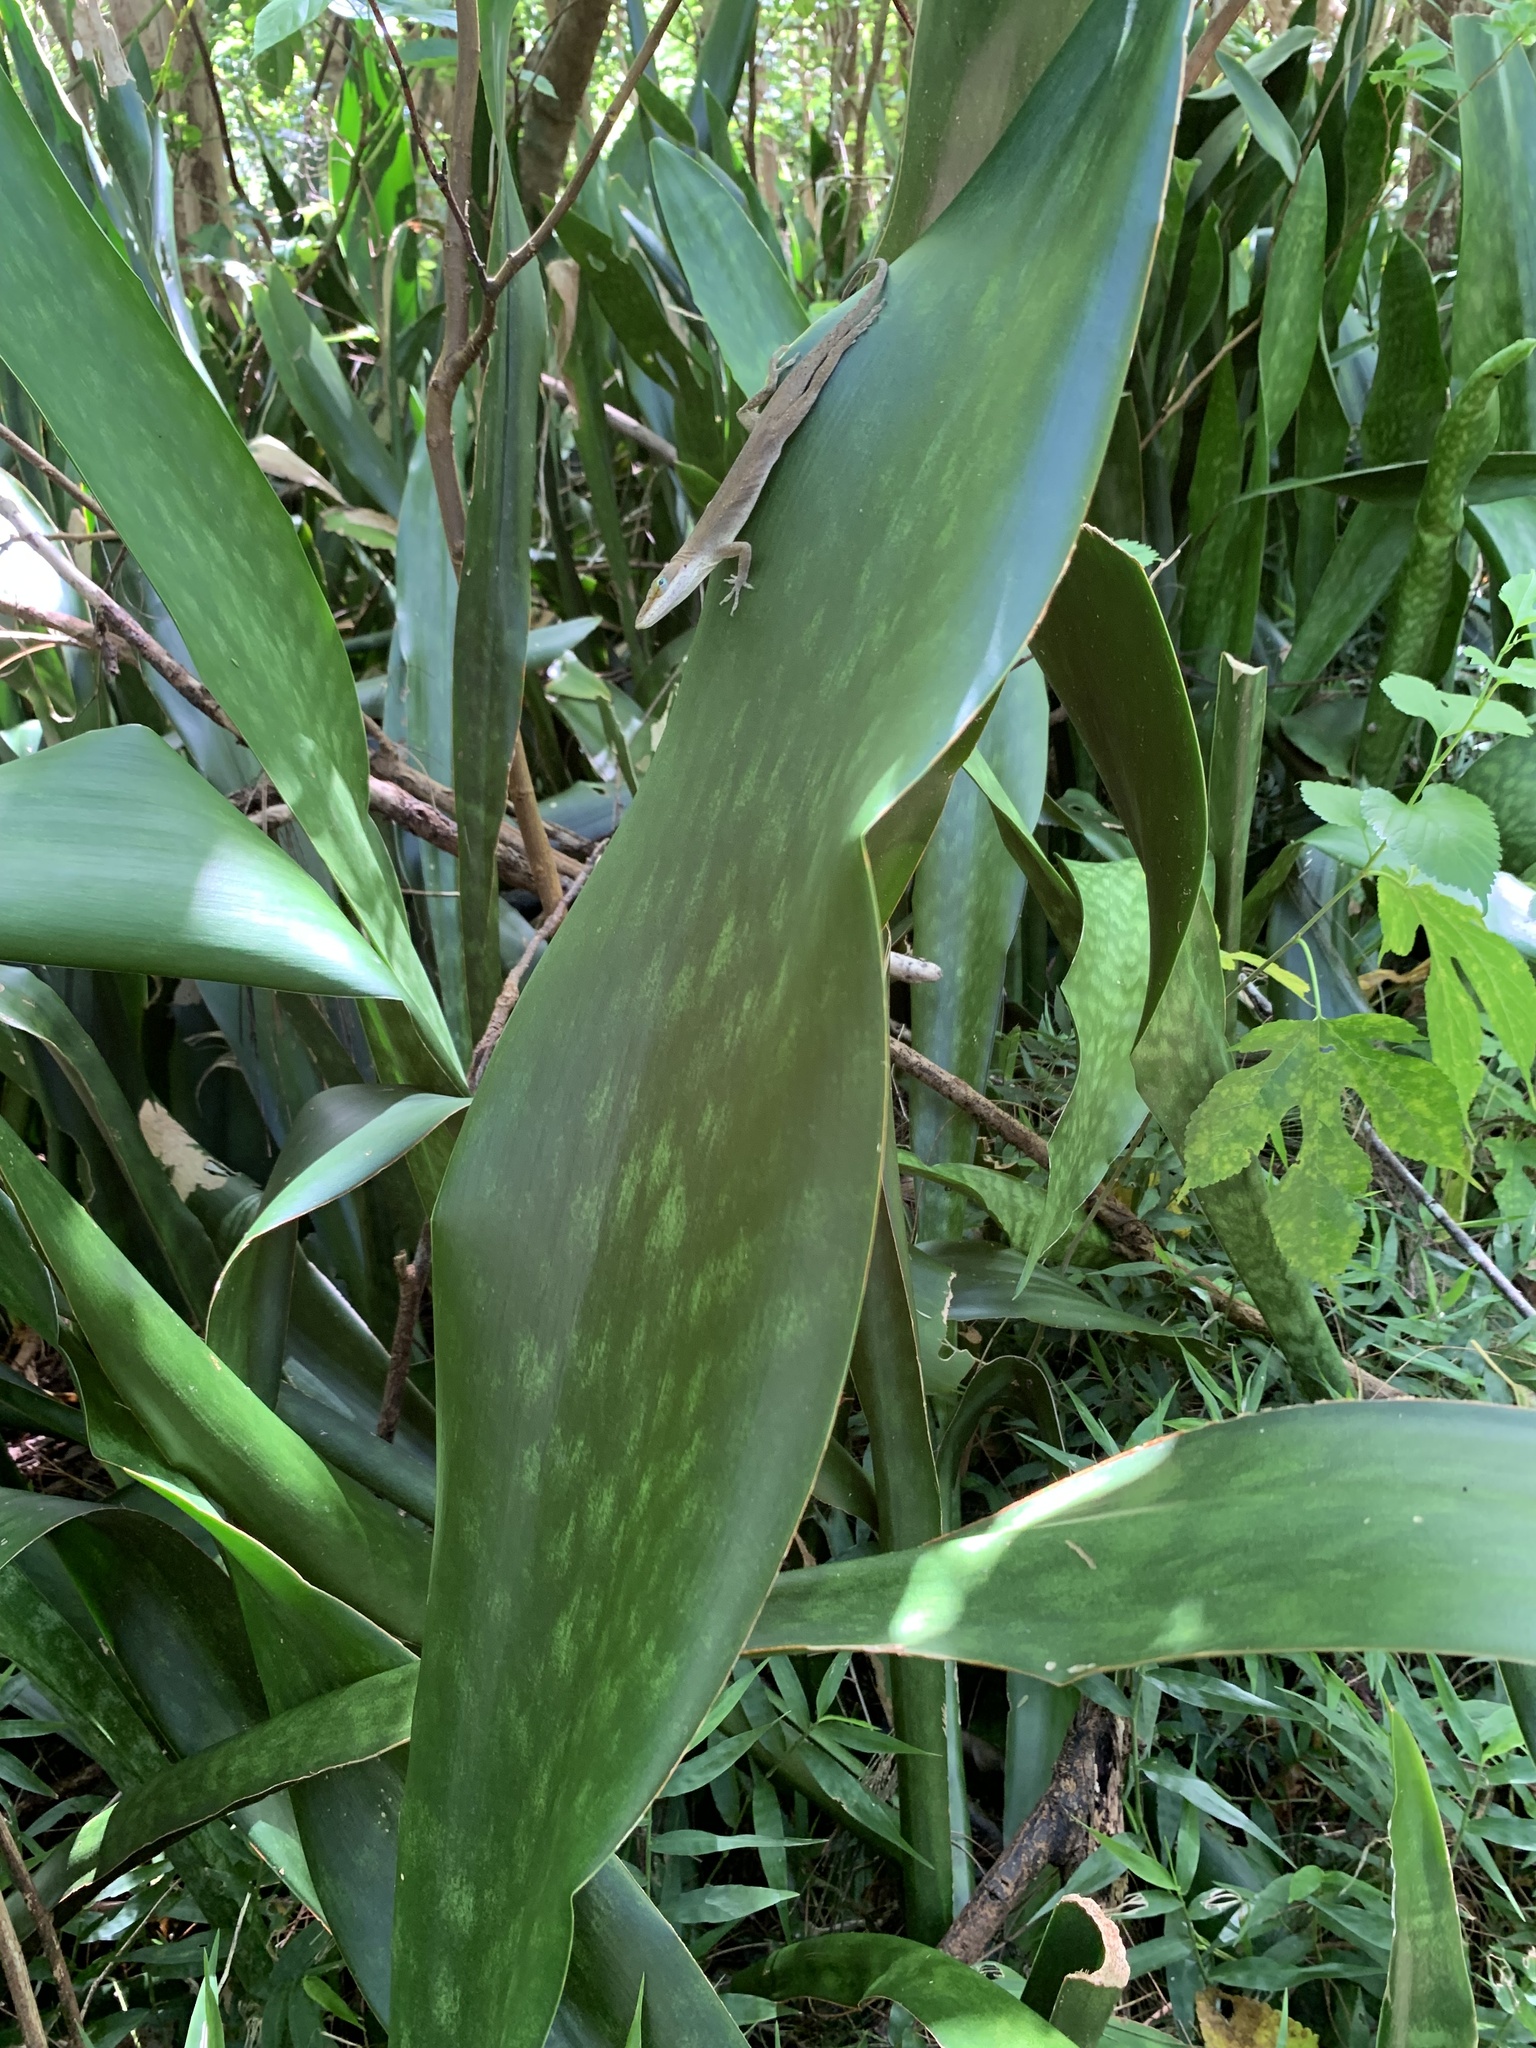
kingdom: Animalia
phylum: Chordata
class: Squamata
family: Dactyloidae
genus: Anolis
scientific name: Anolis carolinensis
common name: Green anole
